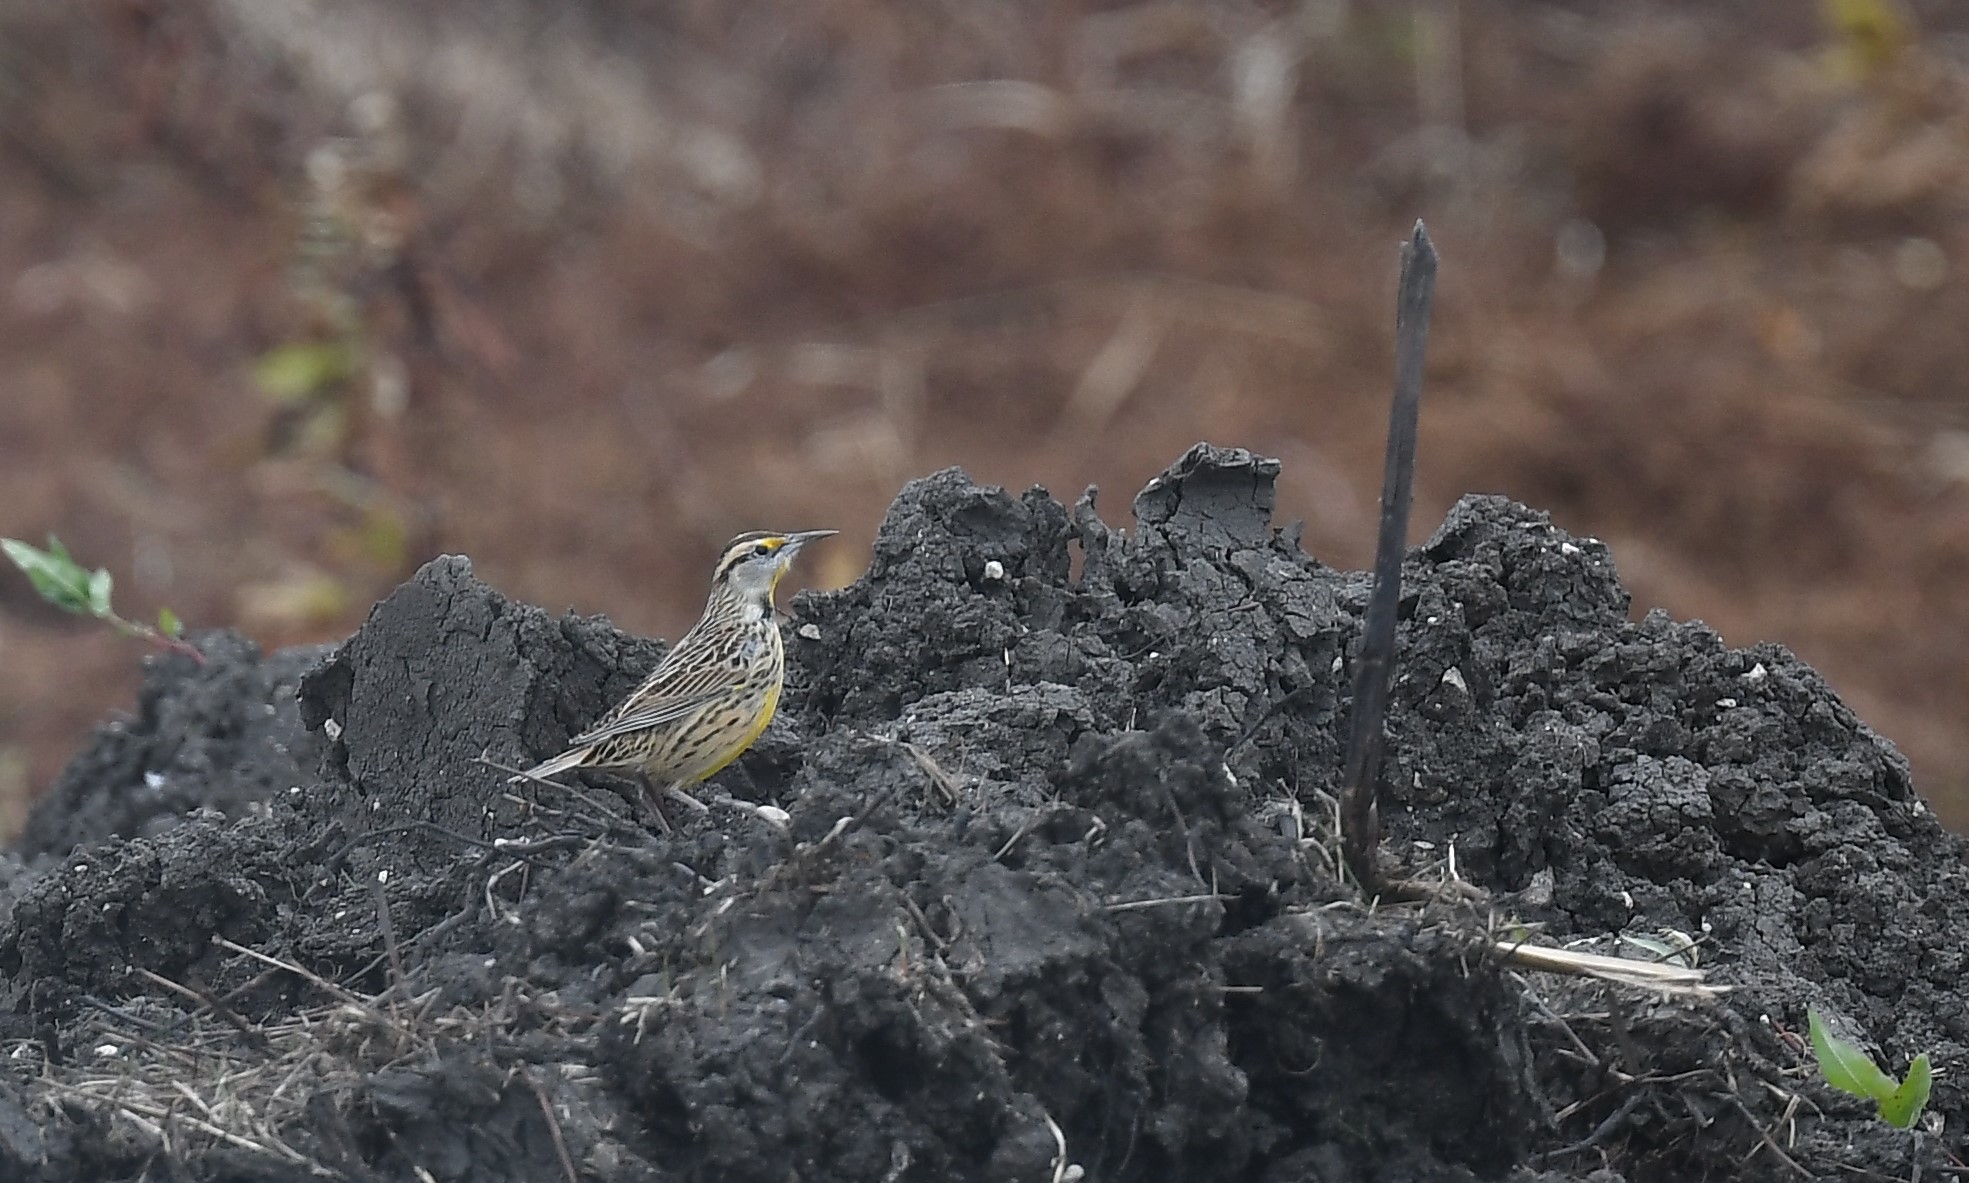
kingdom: Animalia
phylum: Chordata
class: Aves
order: Passeriformes
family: Icteridae
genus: Sturnella
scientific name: Sturnella magna
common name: Eastern meadowlark
